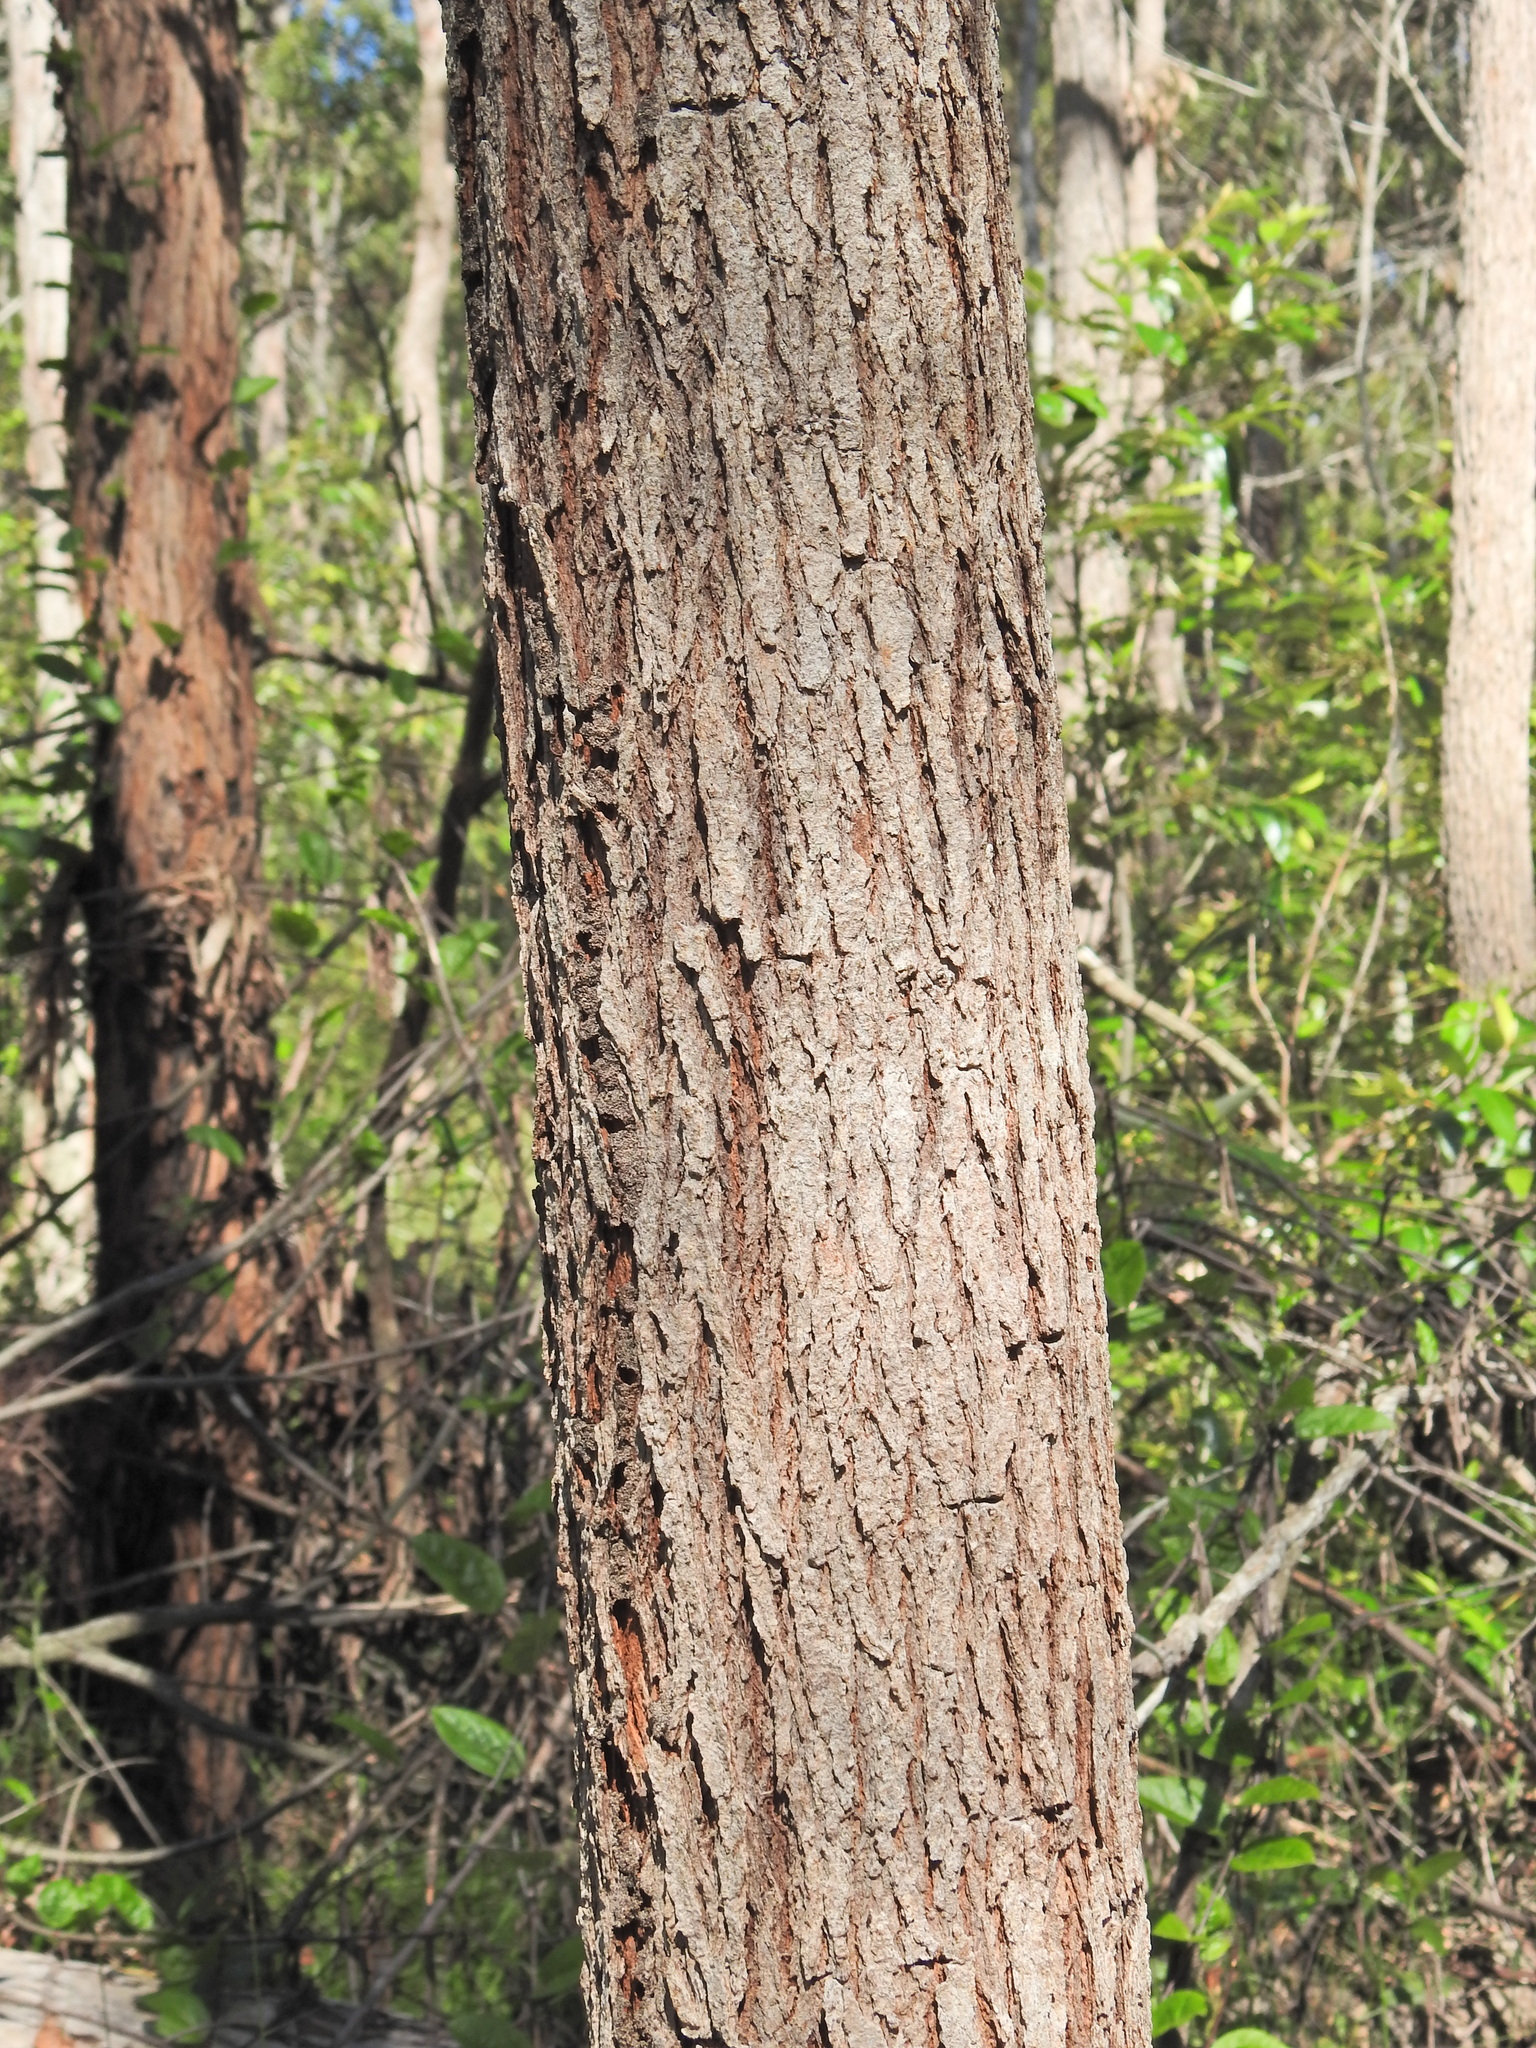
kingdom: Plantae
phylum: Tracheophyta
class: Magnoliopsida
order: Myrtales
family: Myrtaceae
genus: Eucalyptus
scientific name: Eucalyptus exserta
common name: Peppermint-bendo
